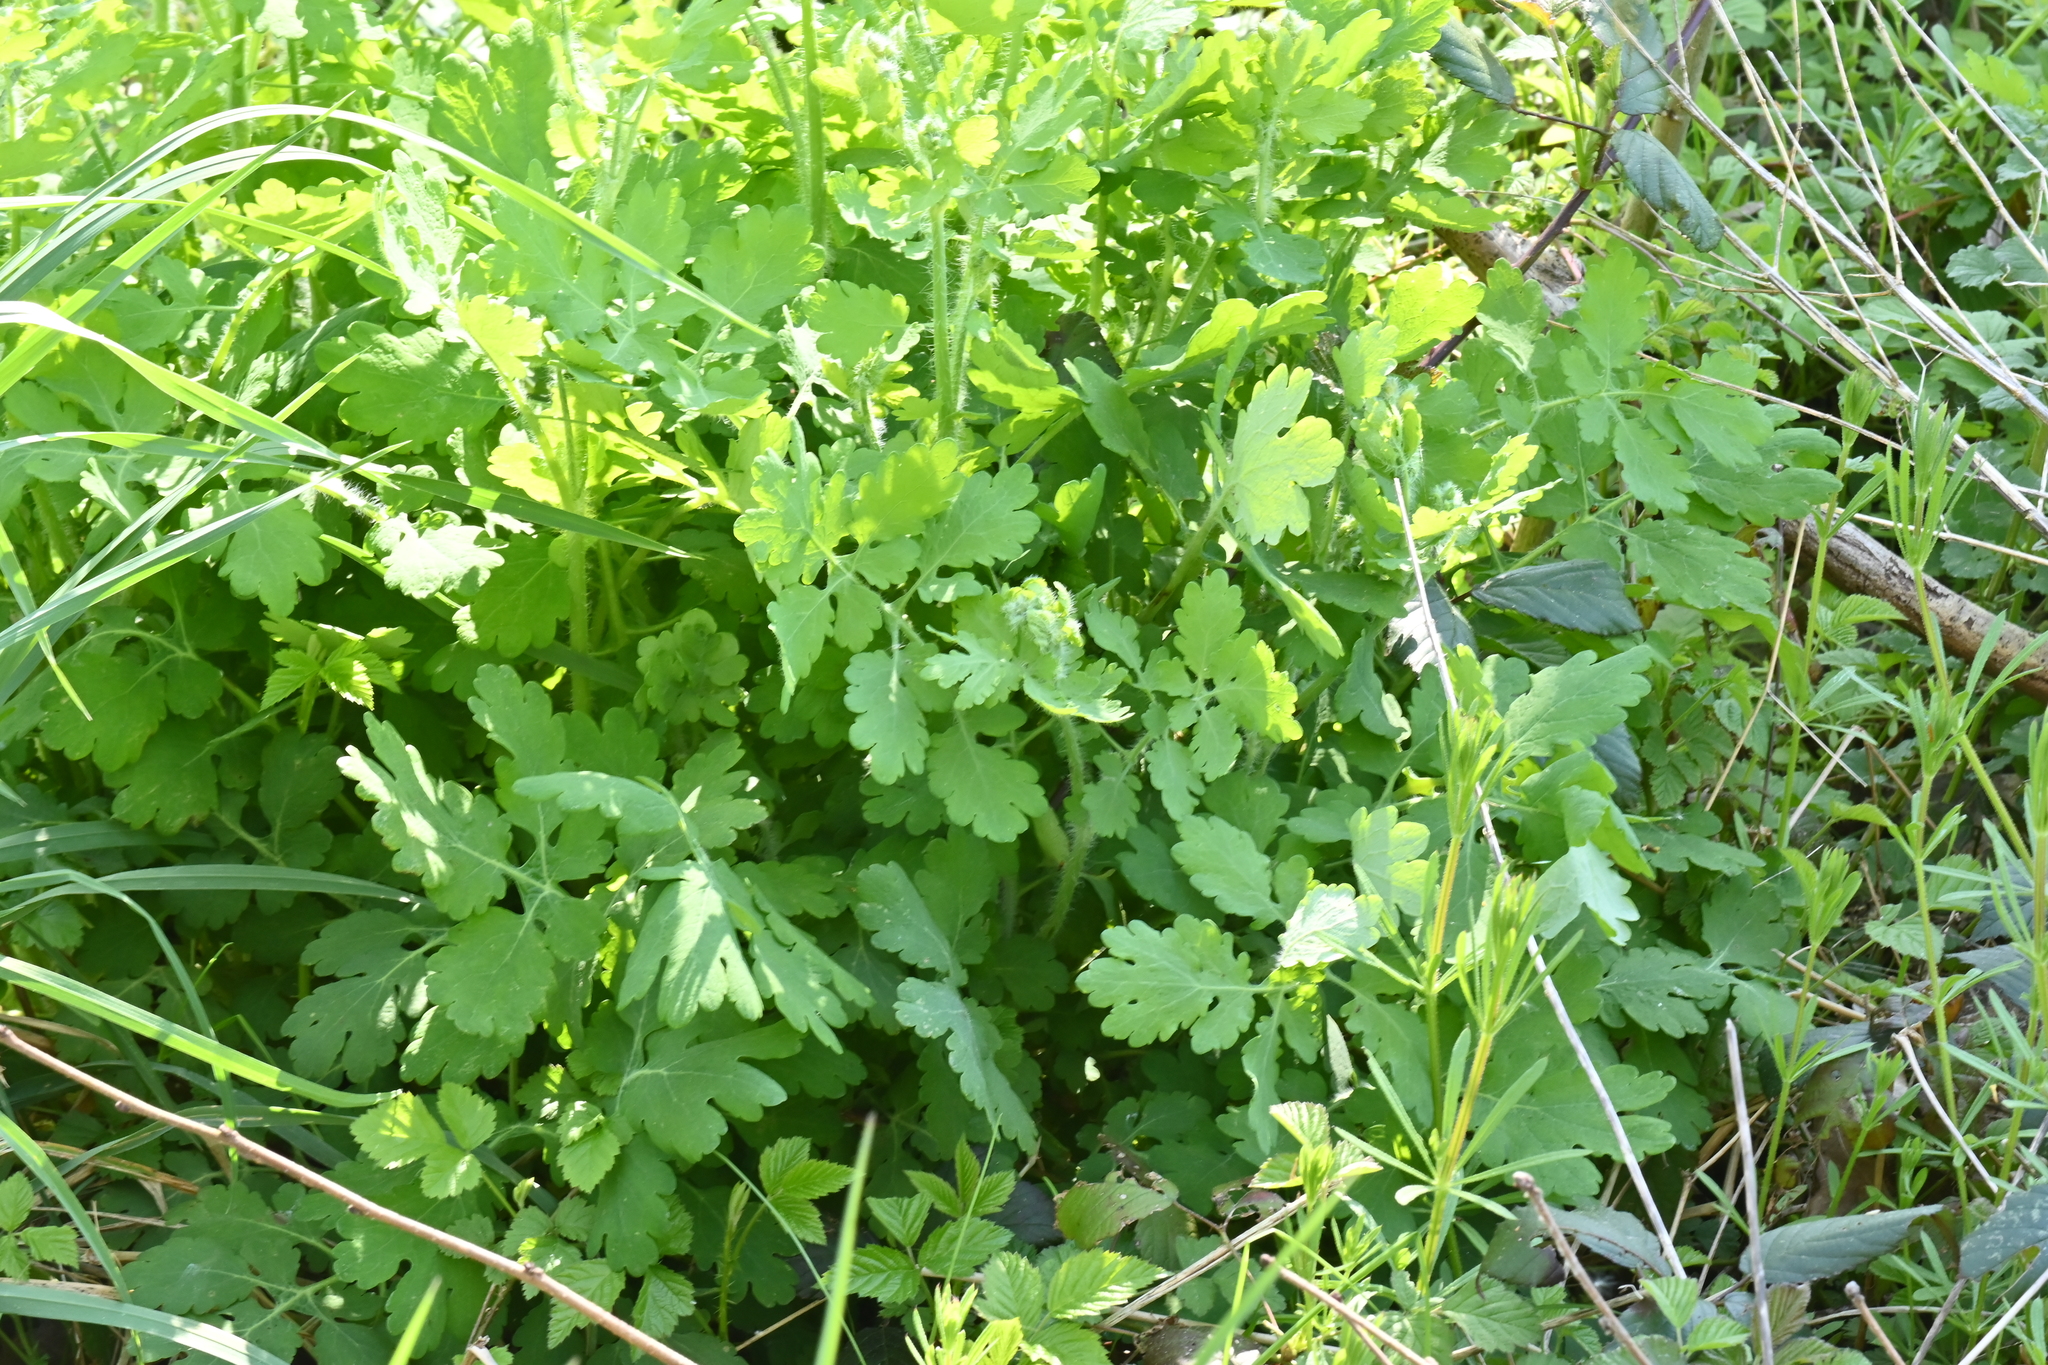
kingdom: Plantae
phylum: Tracheophyta
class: Magnoliopsida
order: Ranunculales
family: Papaveraceae
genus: Chelidonium
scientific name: Chelidonium majus
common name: Greater celandine
